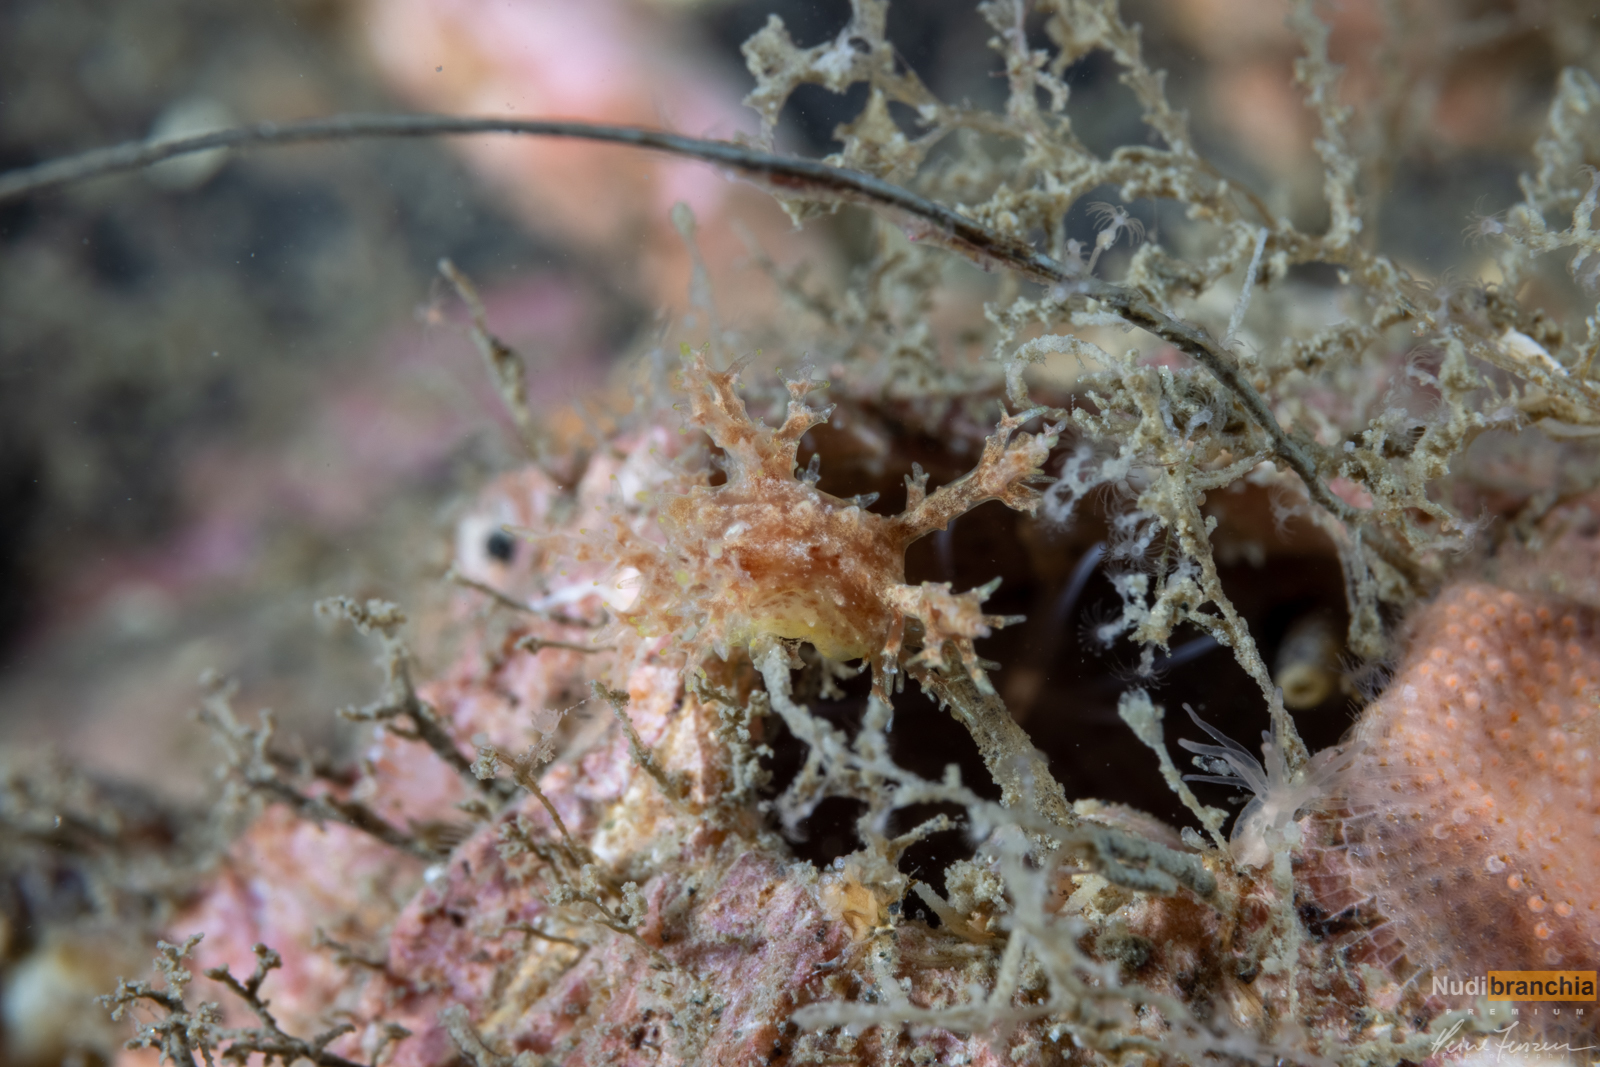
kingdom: Animalia
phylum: Mollusca
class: Gastropoda
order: Nudibranchia
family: Dendronotidae
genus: Dendronotus
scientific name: Dendronotus frondosus
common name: Bushy-backed nudibranch
